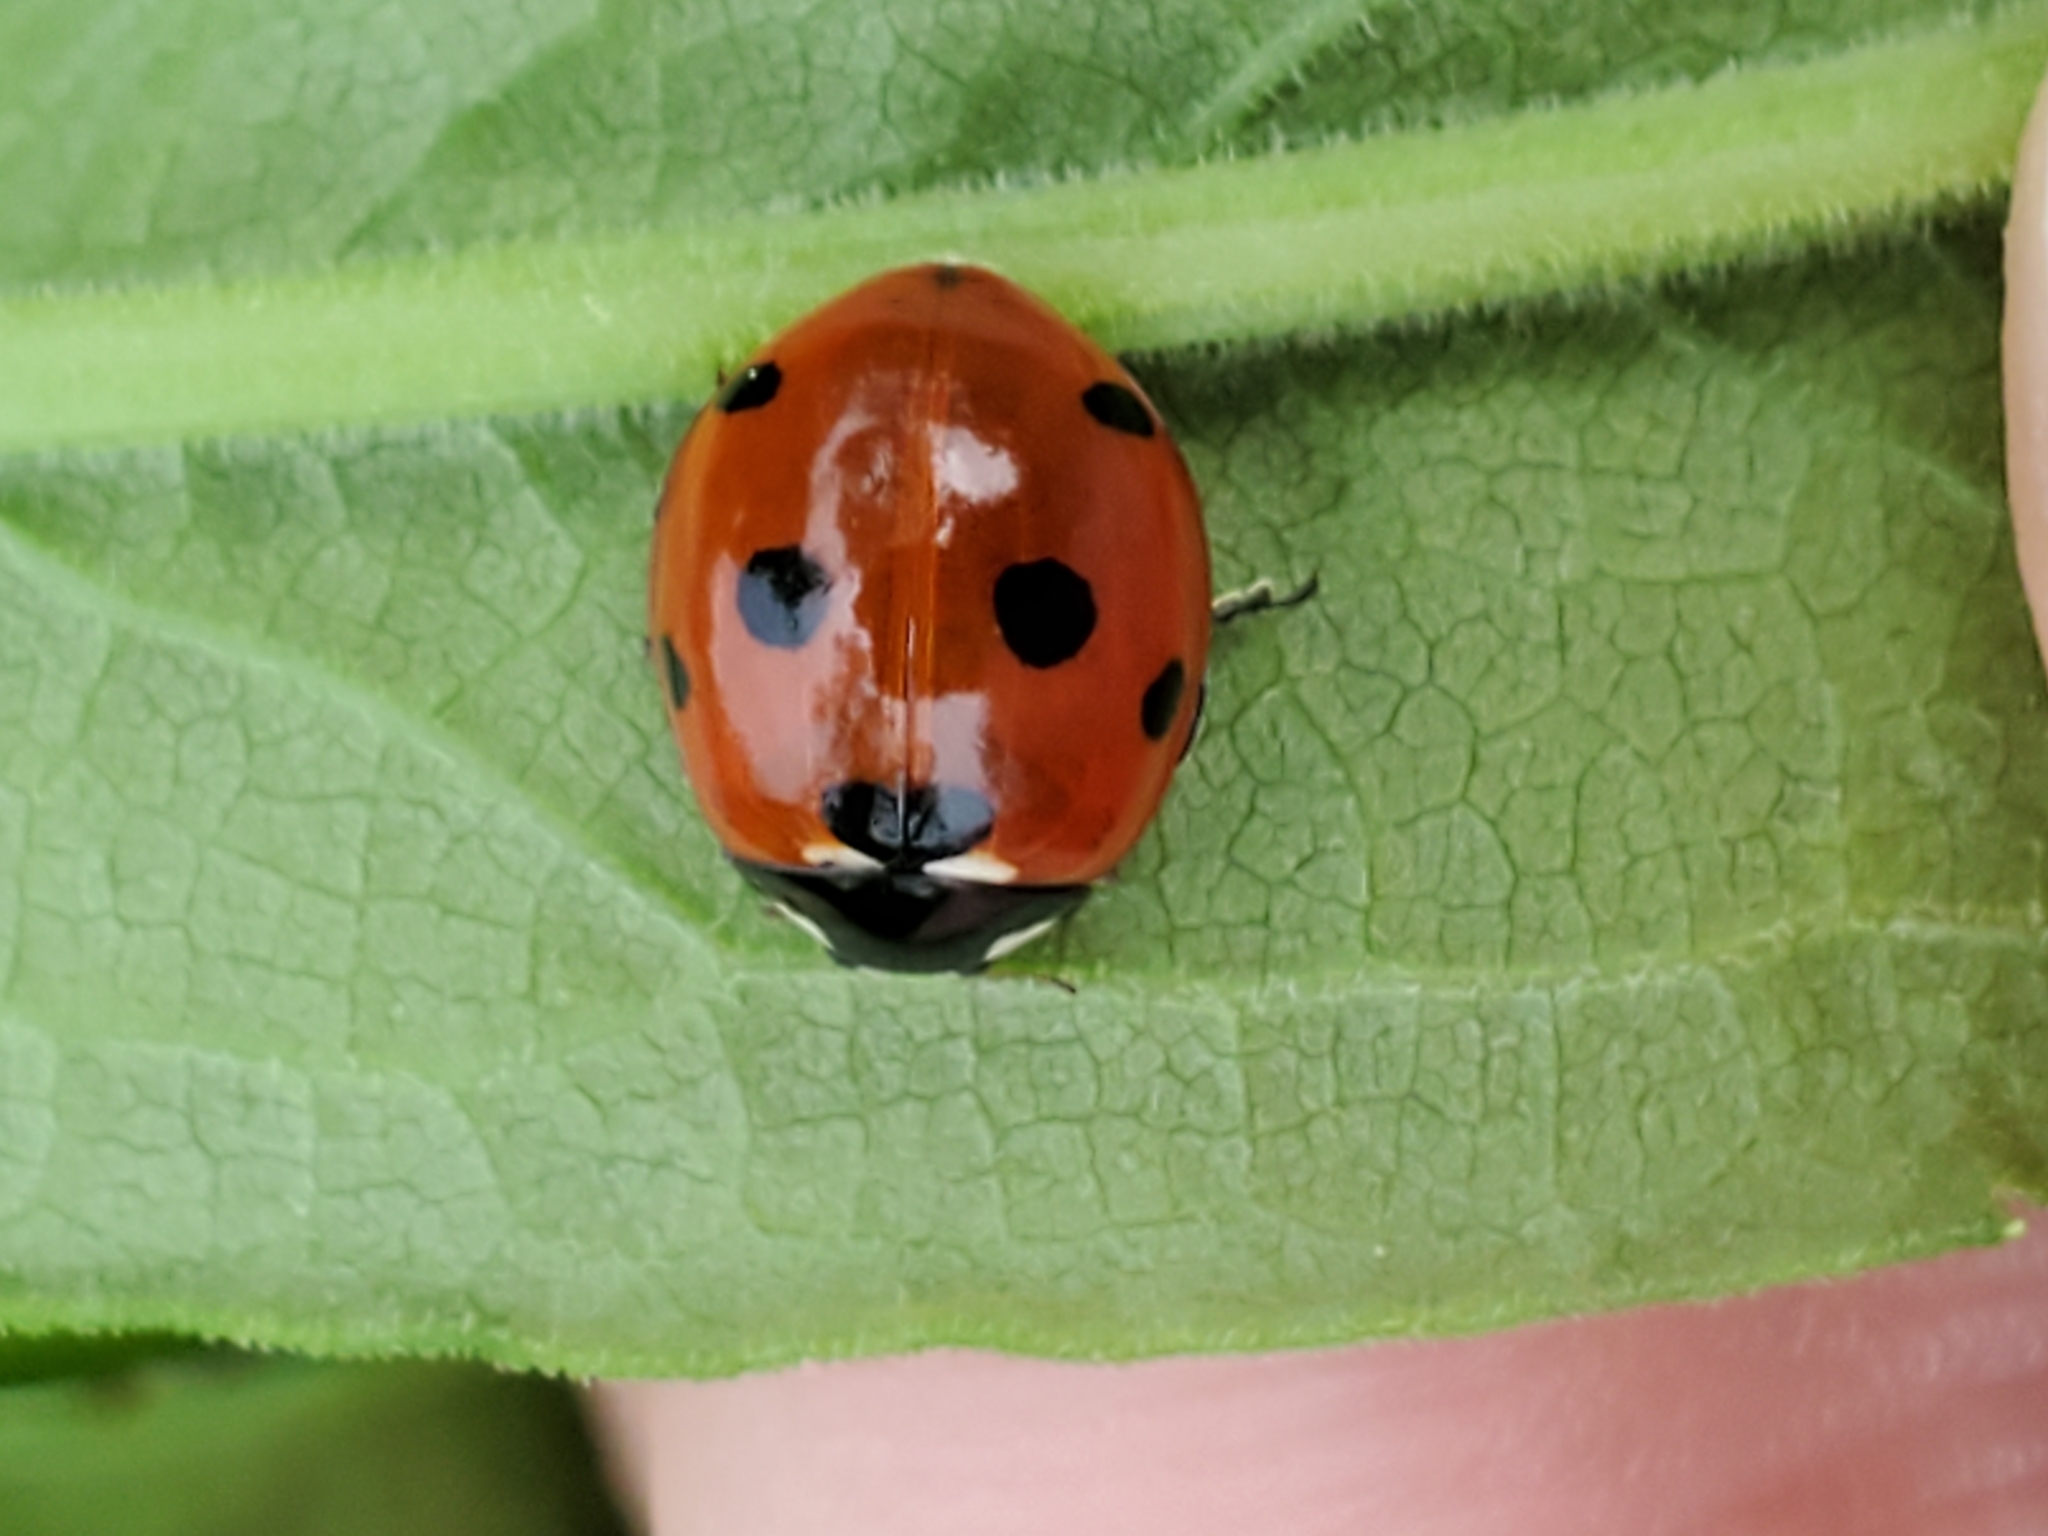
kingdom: Animalia
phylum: Arthropoda
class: Insecta
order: Coleoptera
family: Coccinellidae
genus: Coccinella
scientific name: Coccinella septempunctata
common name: Sevenspotted lady beetle
